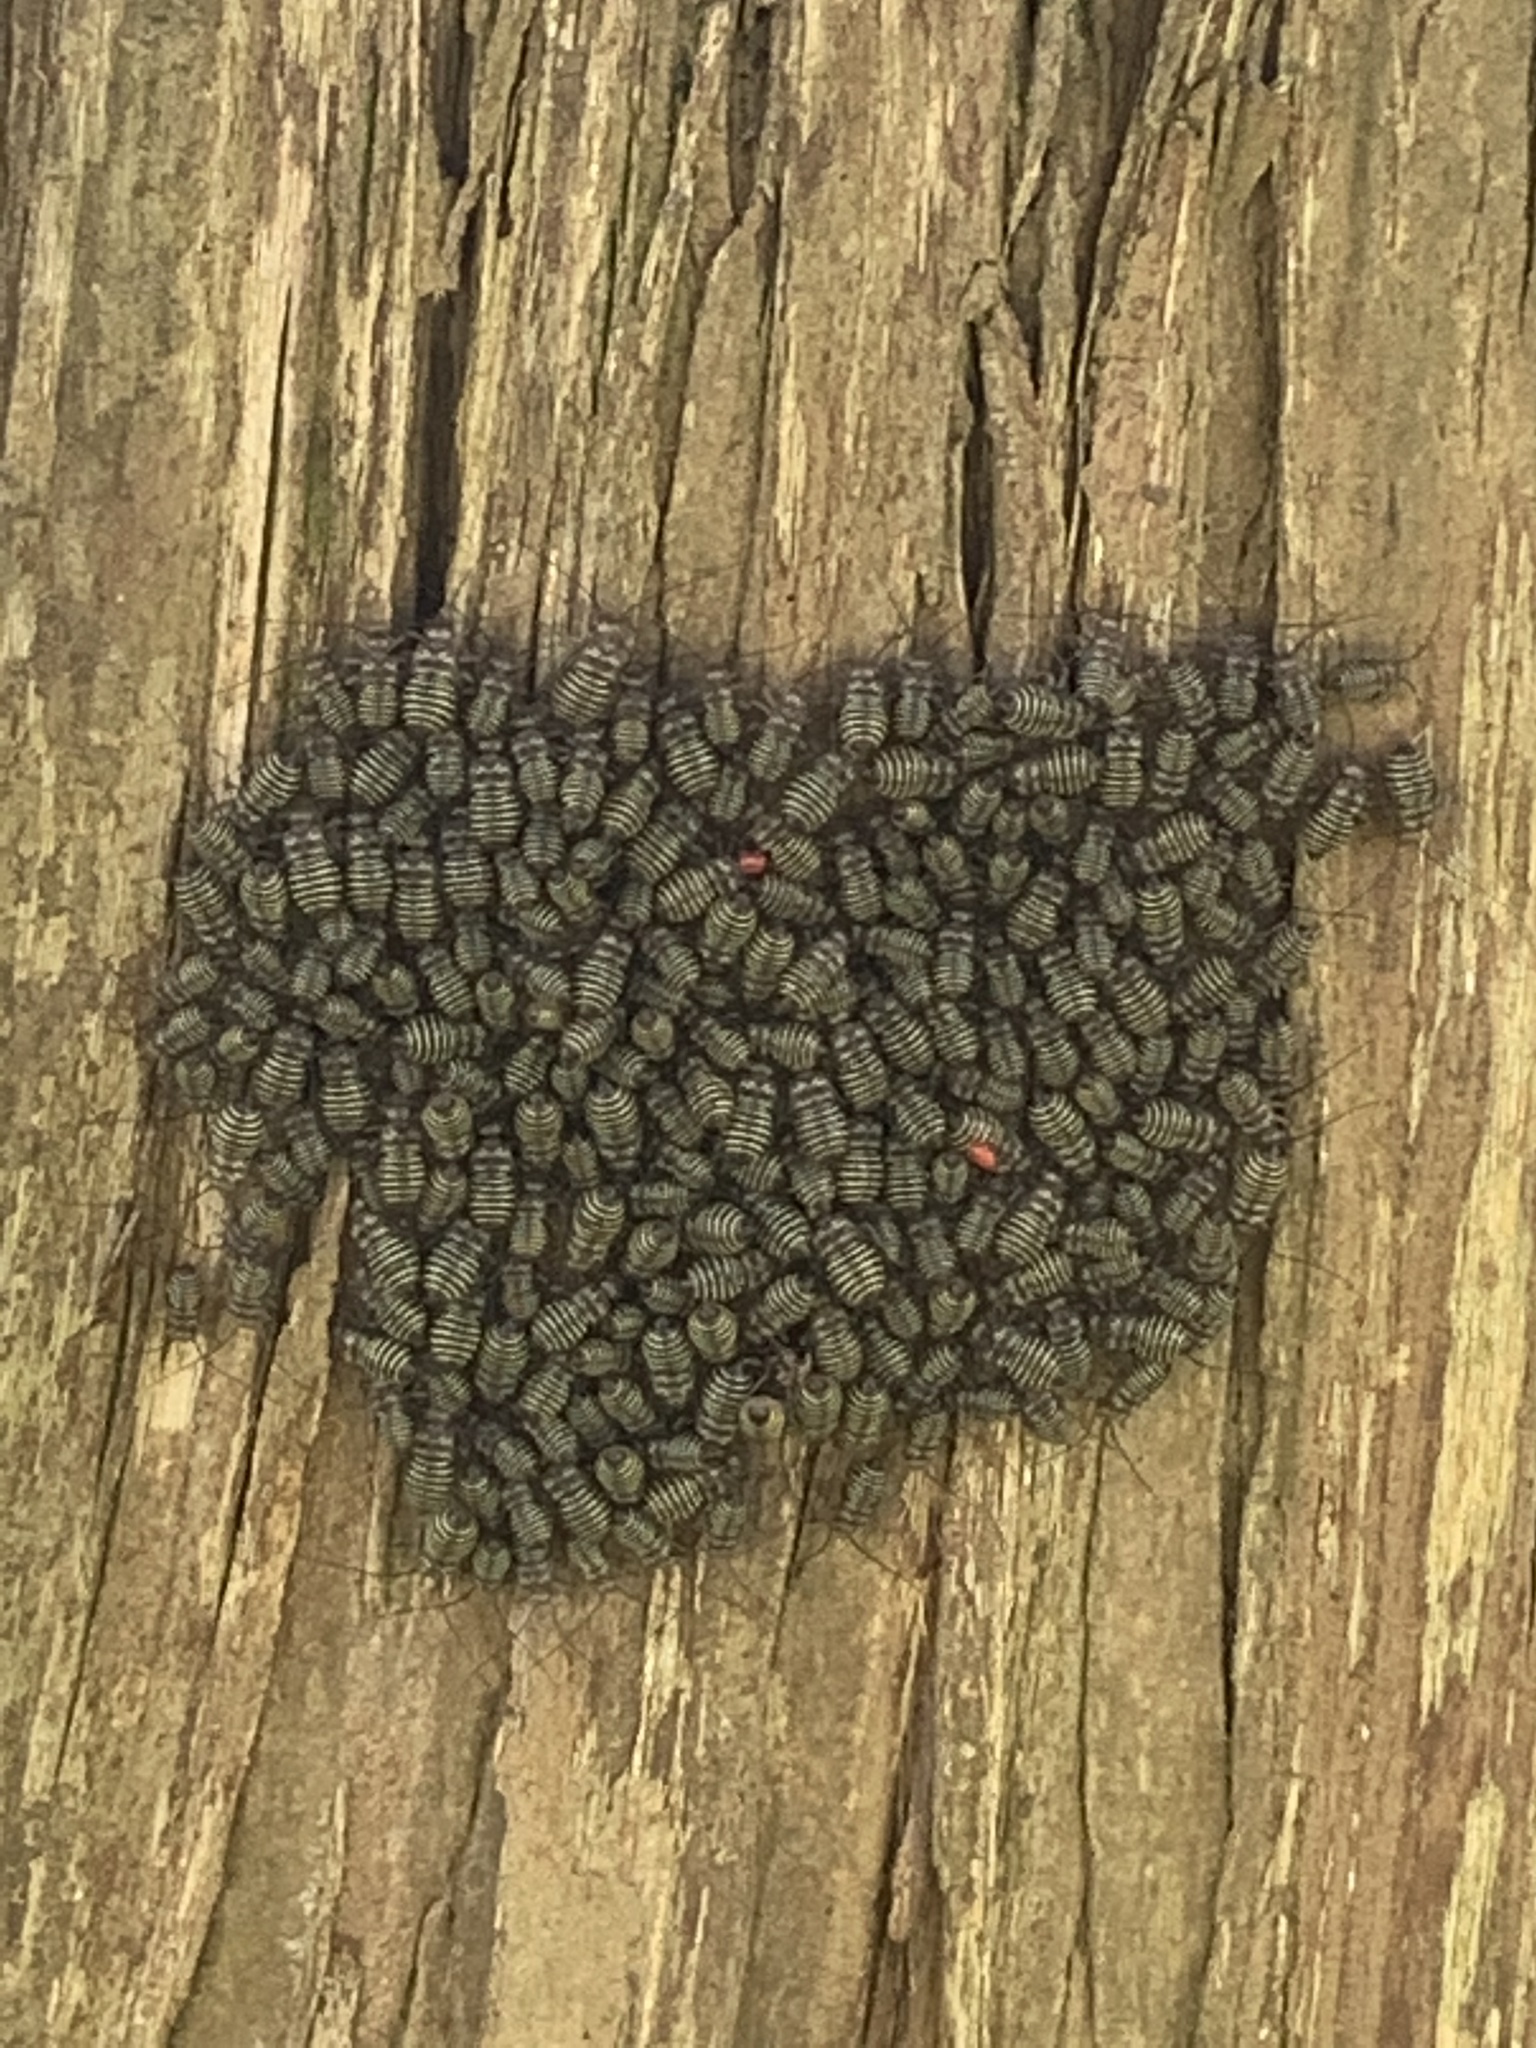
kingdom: Animalia
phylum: Arthropoda
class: Insecta
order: Psocodea
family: Psocidae
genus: Cerastipsocus
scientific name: Cerastipsocus venosus
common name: Tree cattle
